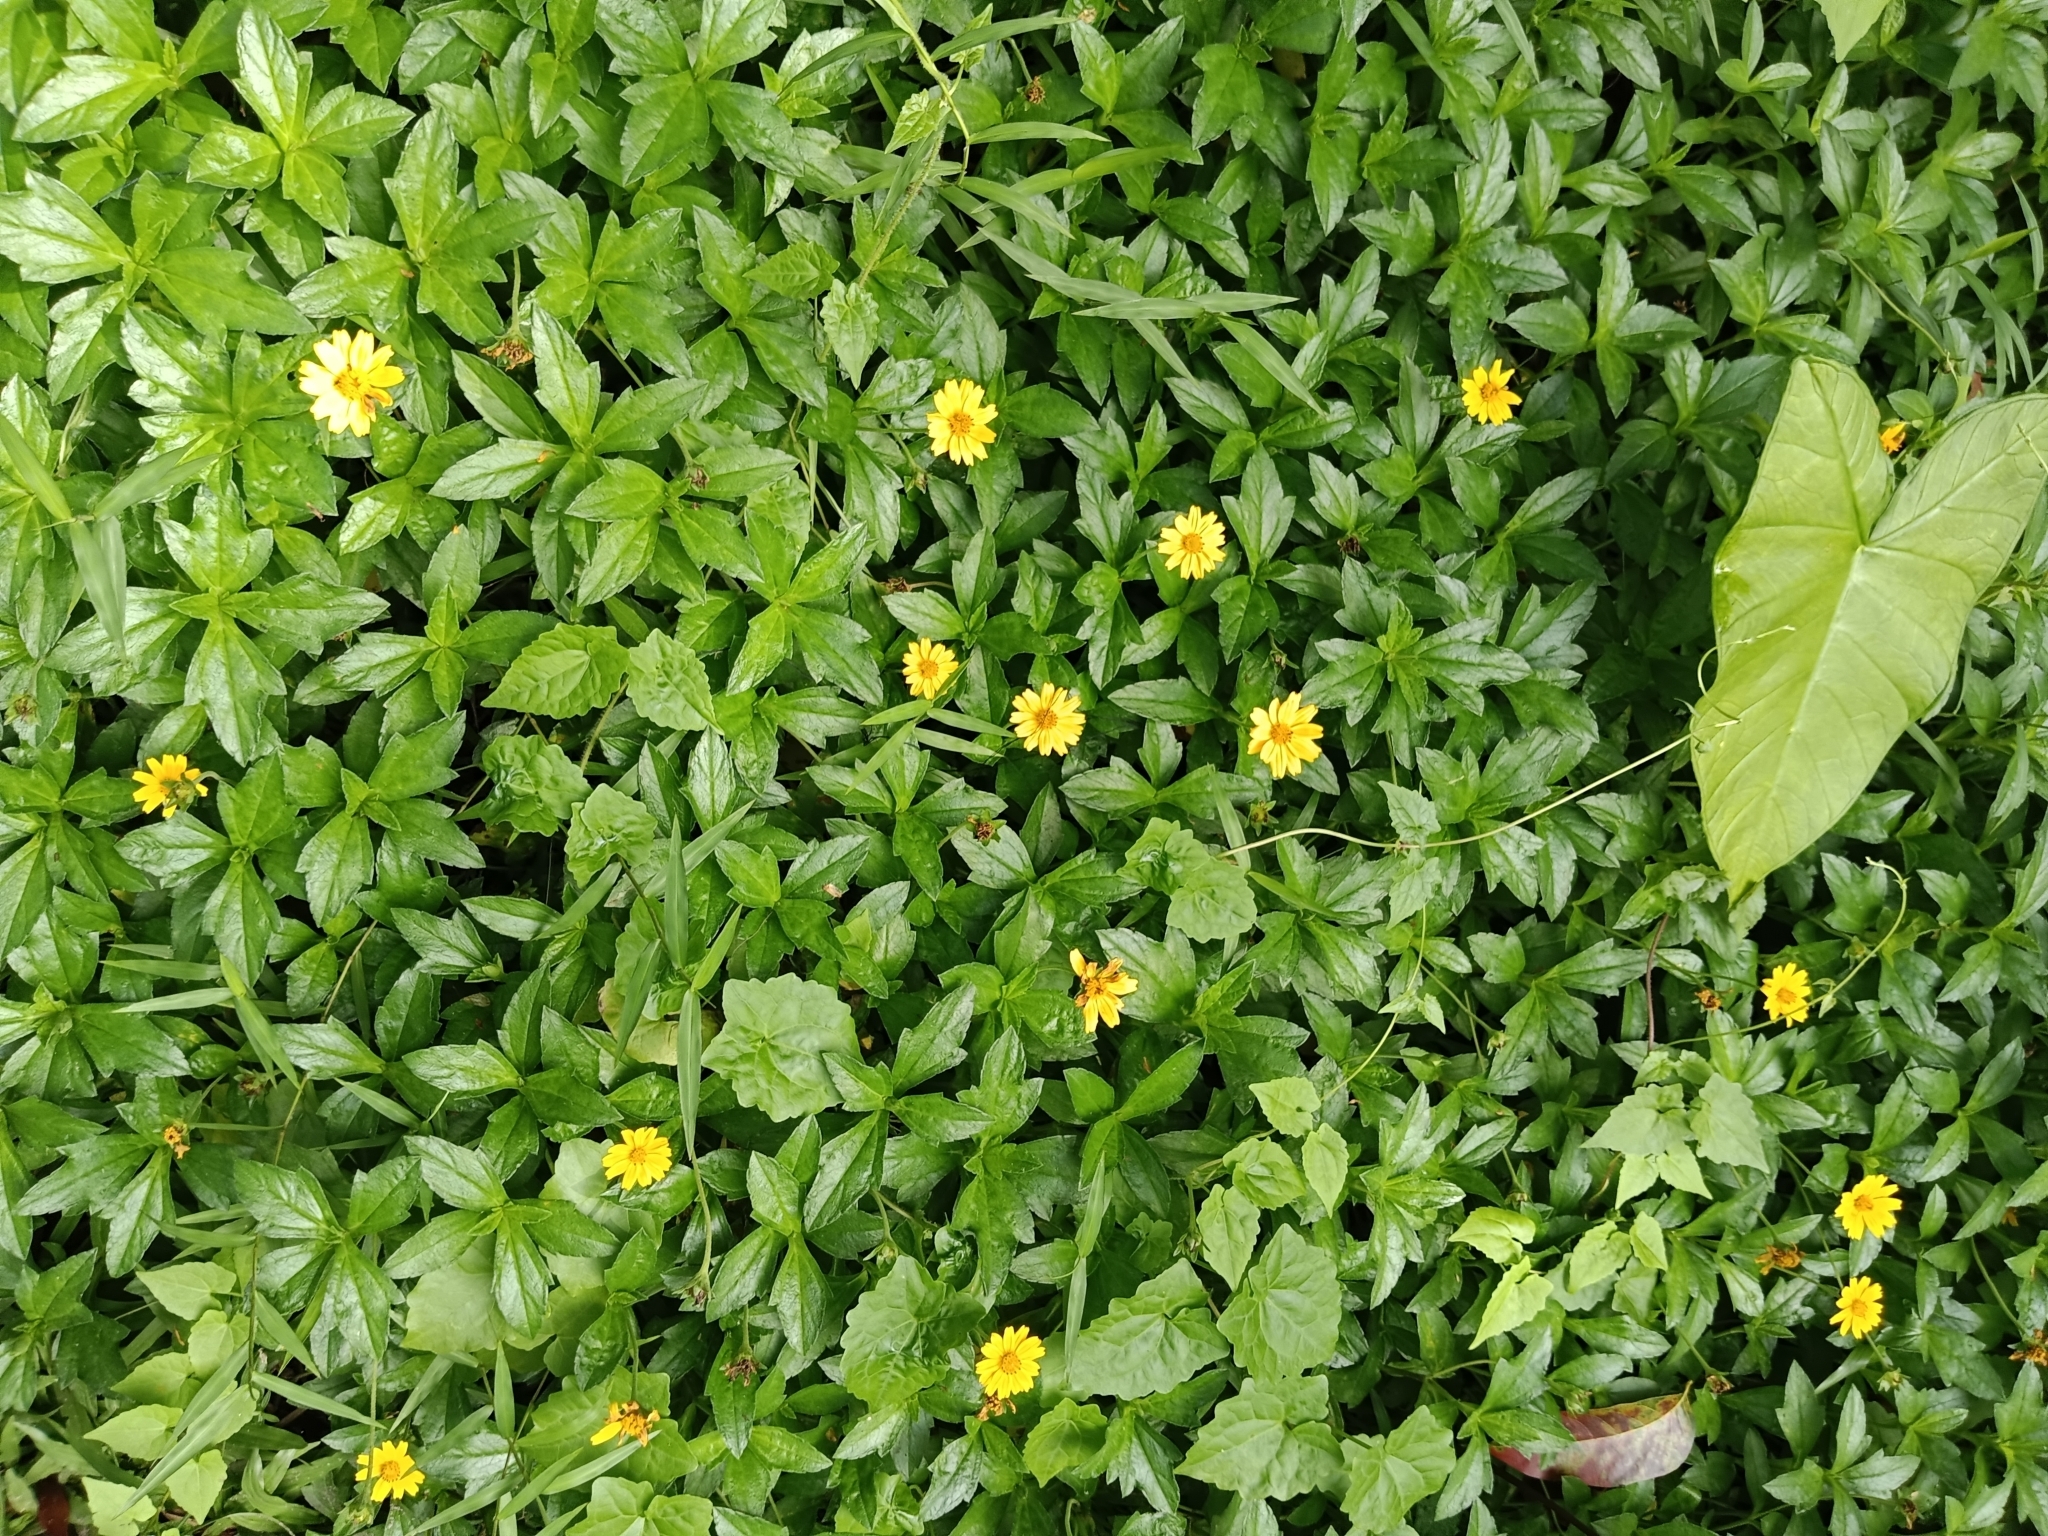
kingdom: Plantae
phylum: Tracheophyta
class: Magnoliopsida
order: Asterales
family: Asteraceae
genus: Sphagneticola
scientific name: Sphagneticola trilobata
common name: Bay biscayne creeping-oxeye
